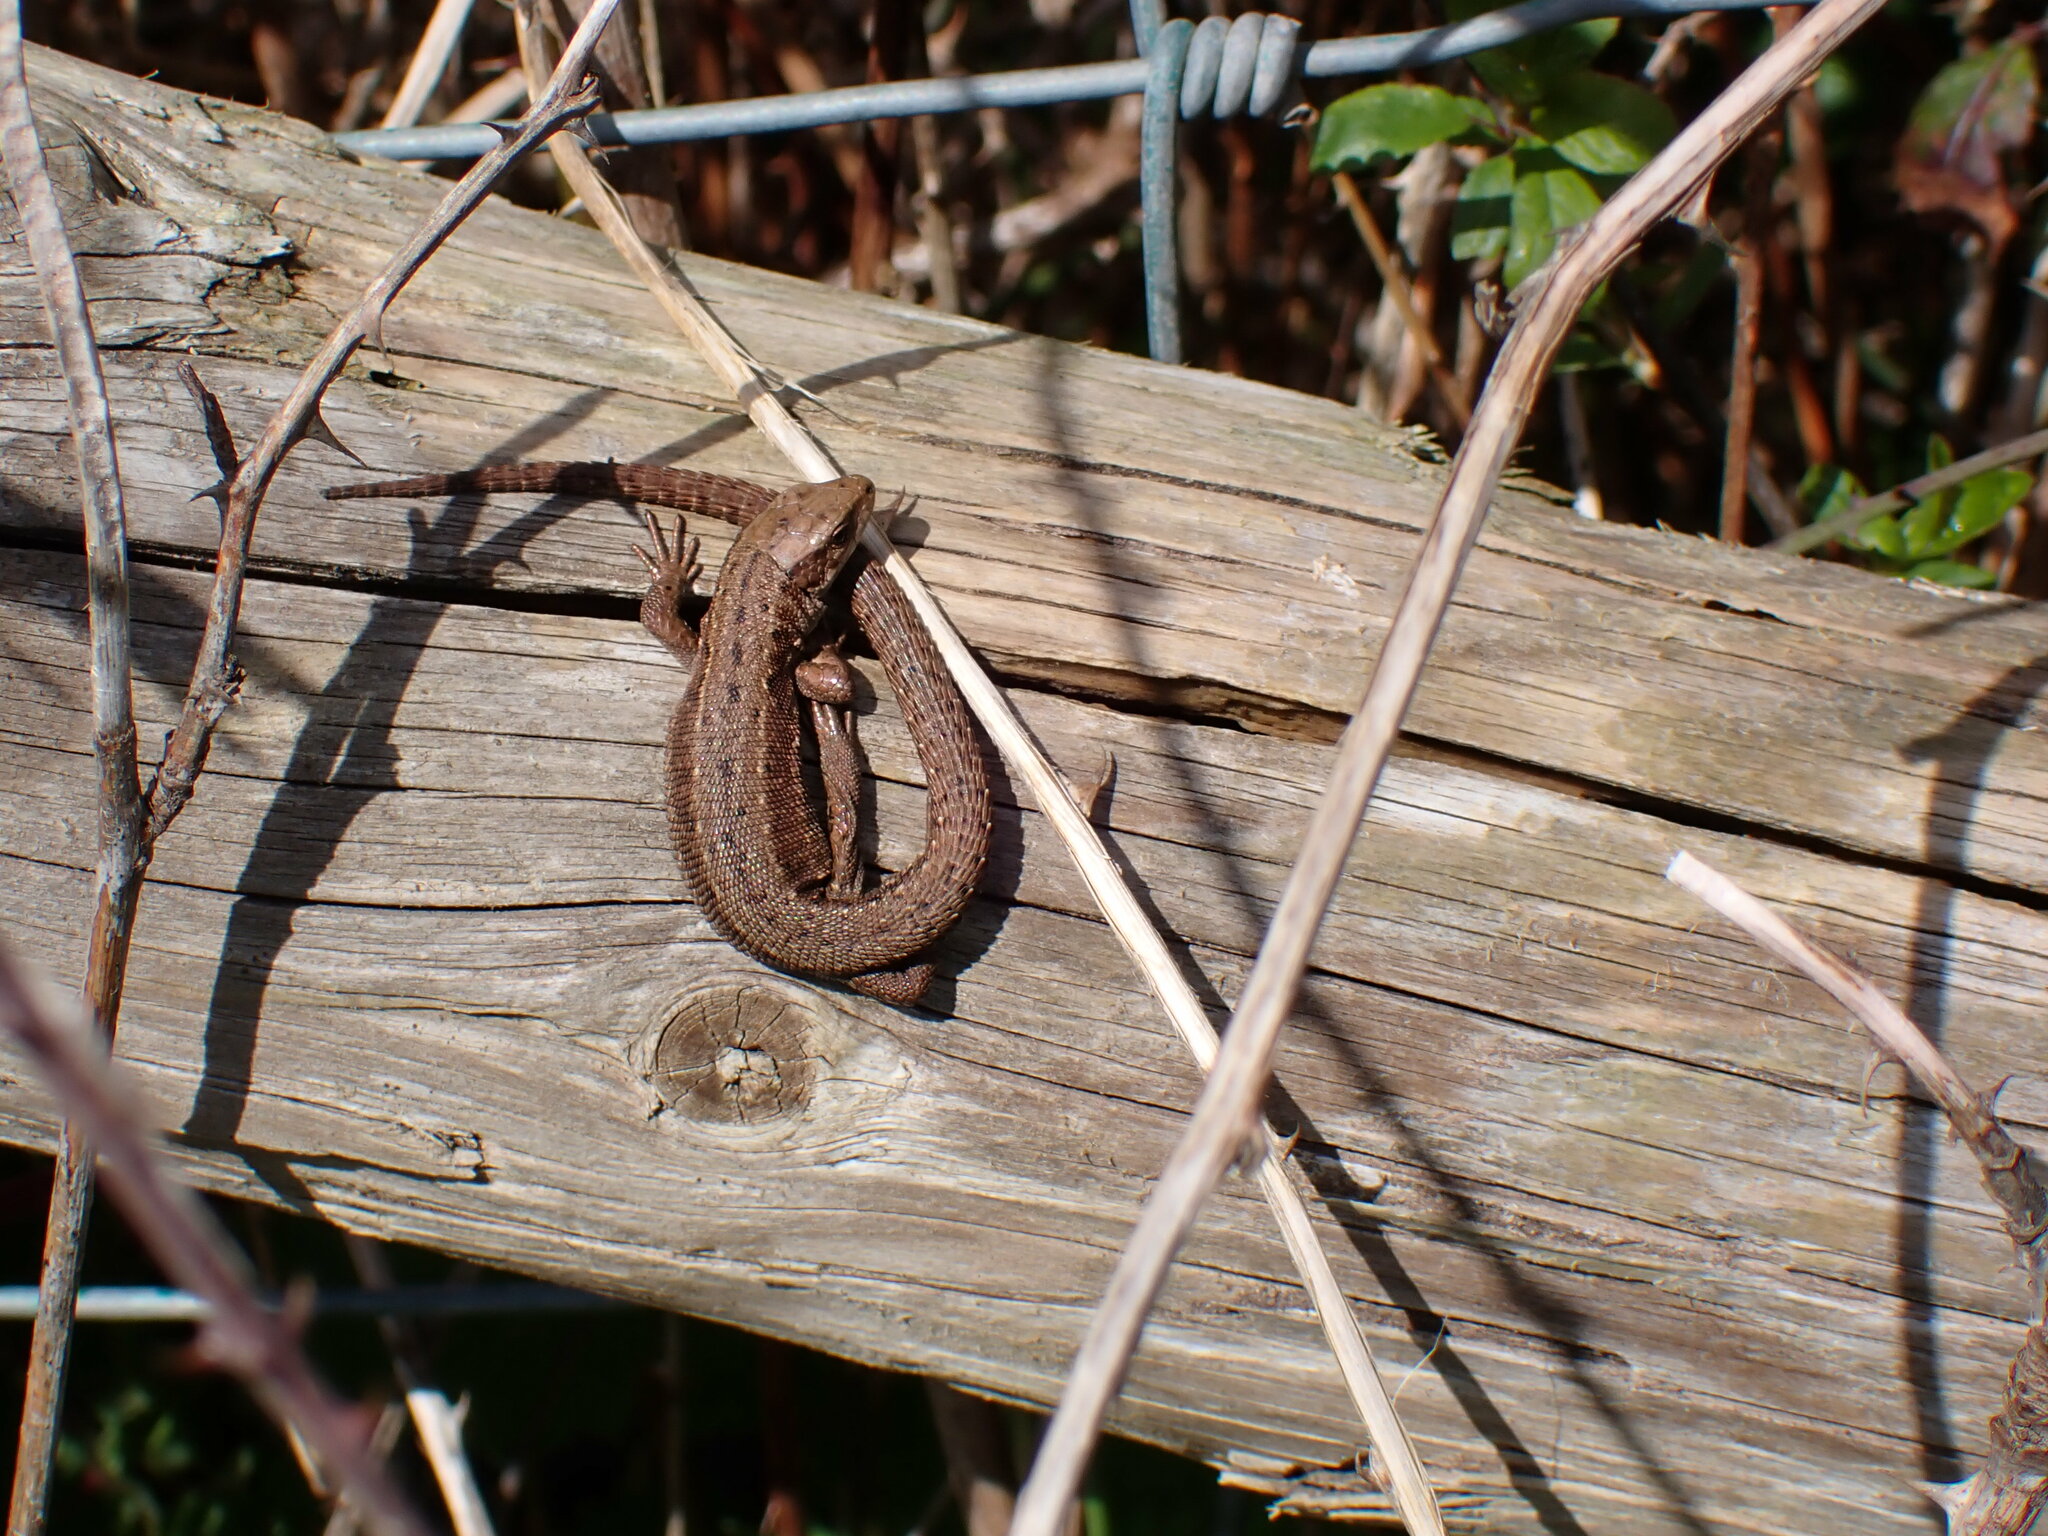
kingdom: Animalia
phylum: Chordata
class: Squamata
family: Lacertidae
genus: Zootoca
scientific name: Zootoca vivipara
